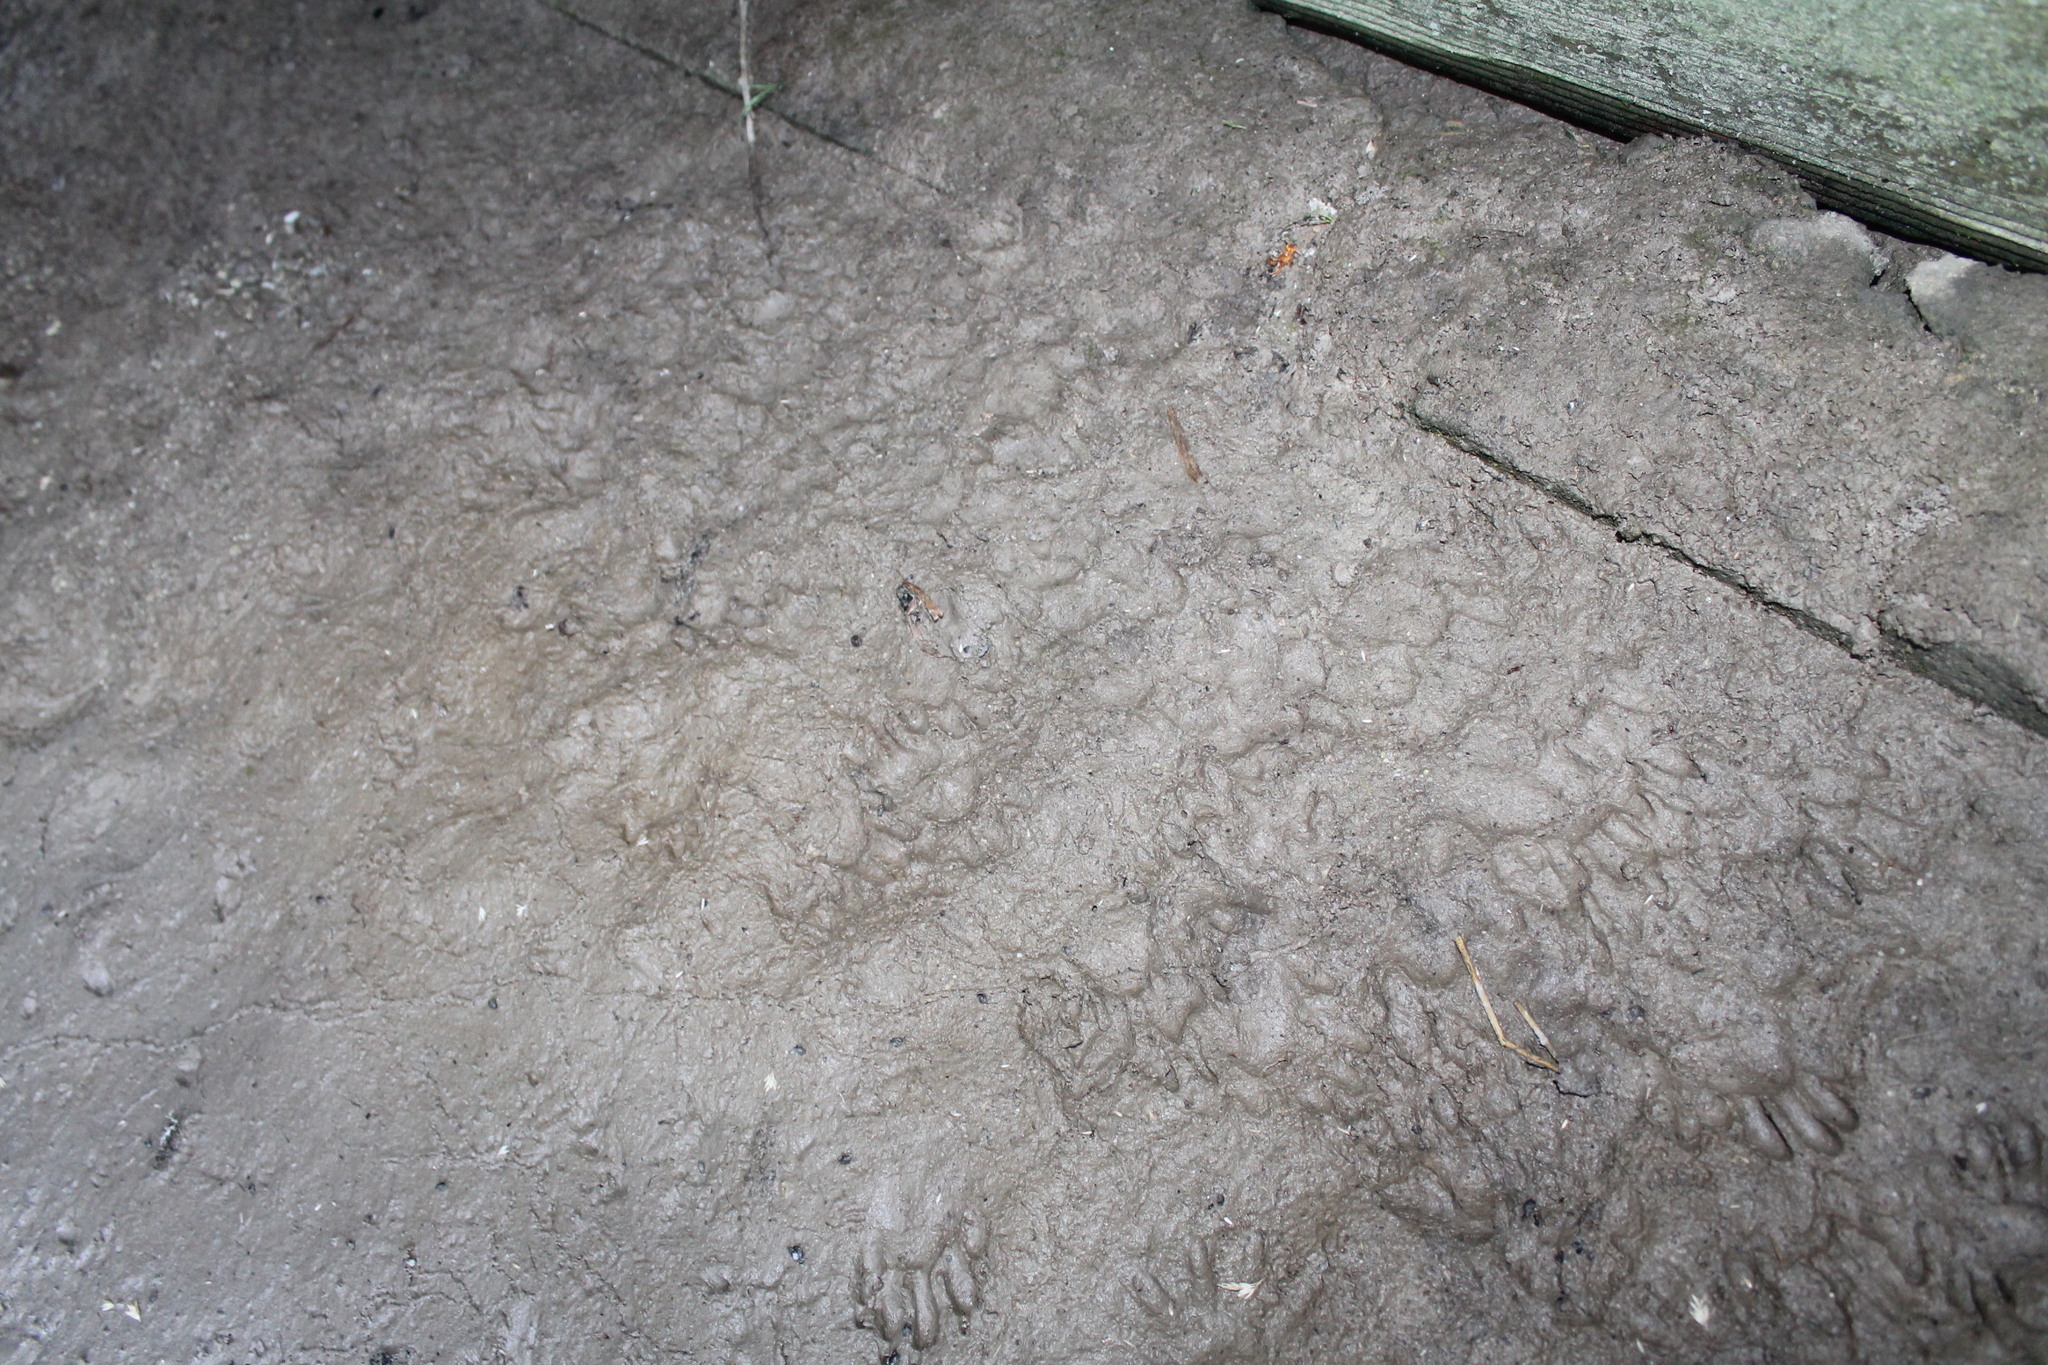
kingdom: Animalia
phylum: Chordata
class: Mammalia
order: Carnivora
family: Procyonidae
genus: Procyon
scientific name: Procyon lotor
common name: Raccoon
